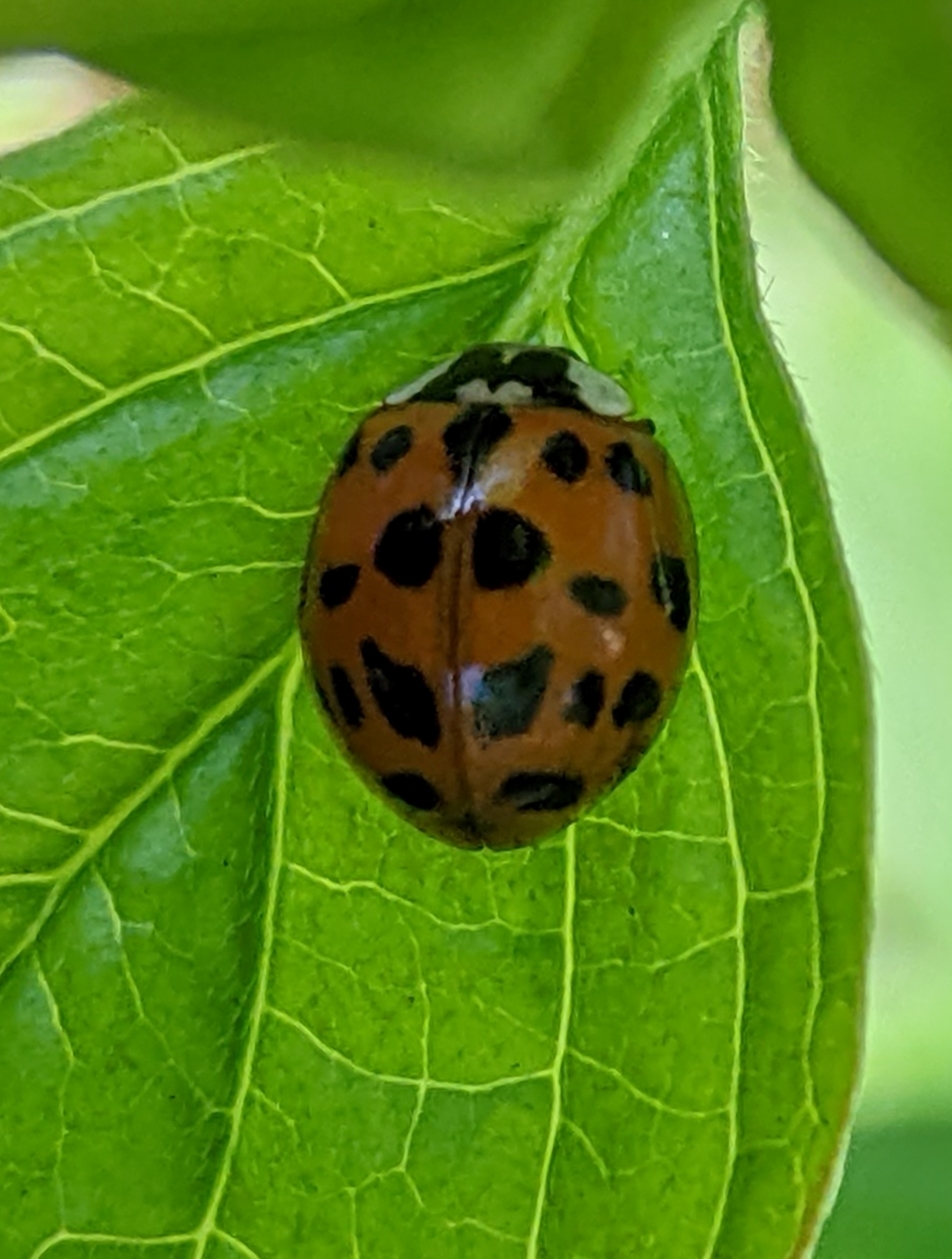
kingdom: Animalia
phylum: Arthropoda
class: Insecta
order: Coleoptera
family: Coccinellidae
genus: Harmonia
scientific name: Harmonia axyridis
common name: Harlequin ladybird
